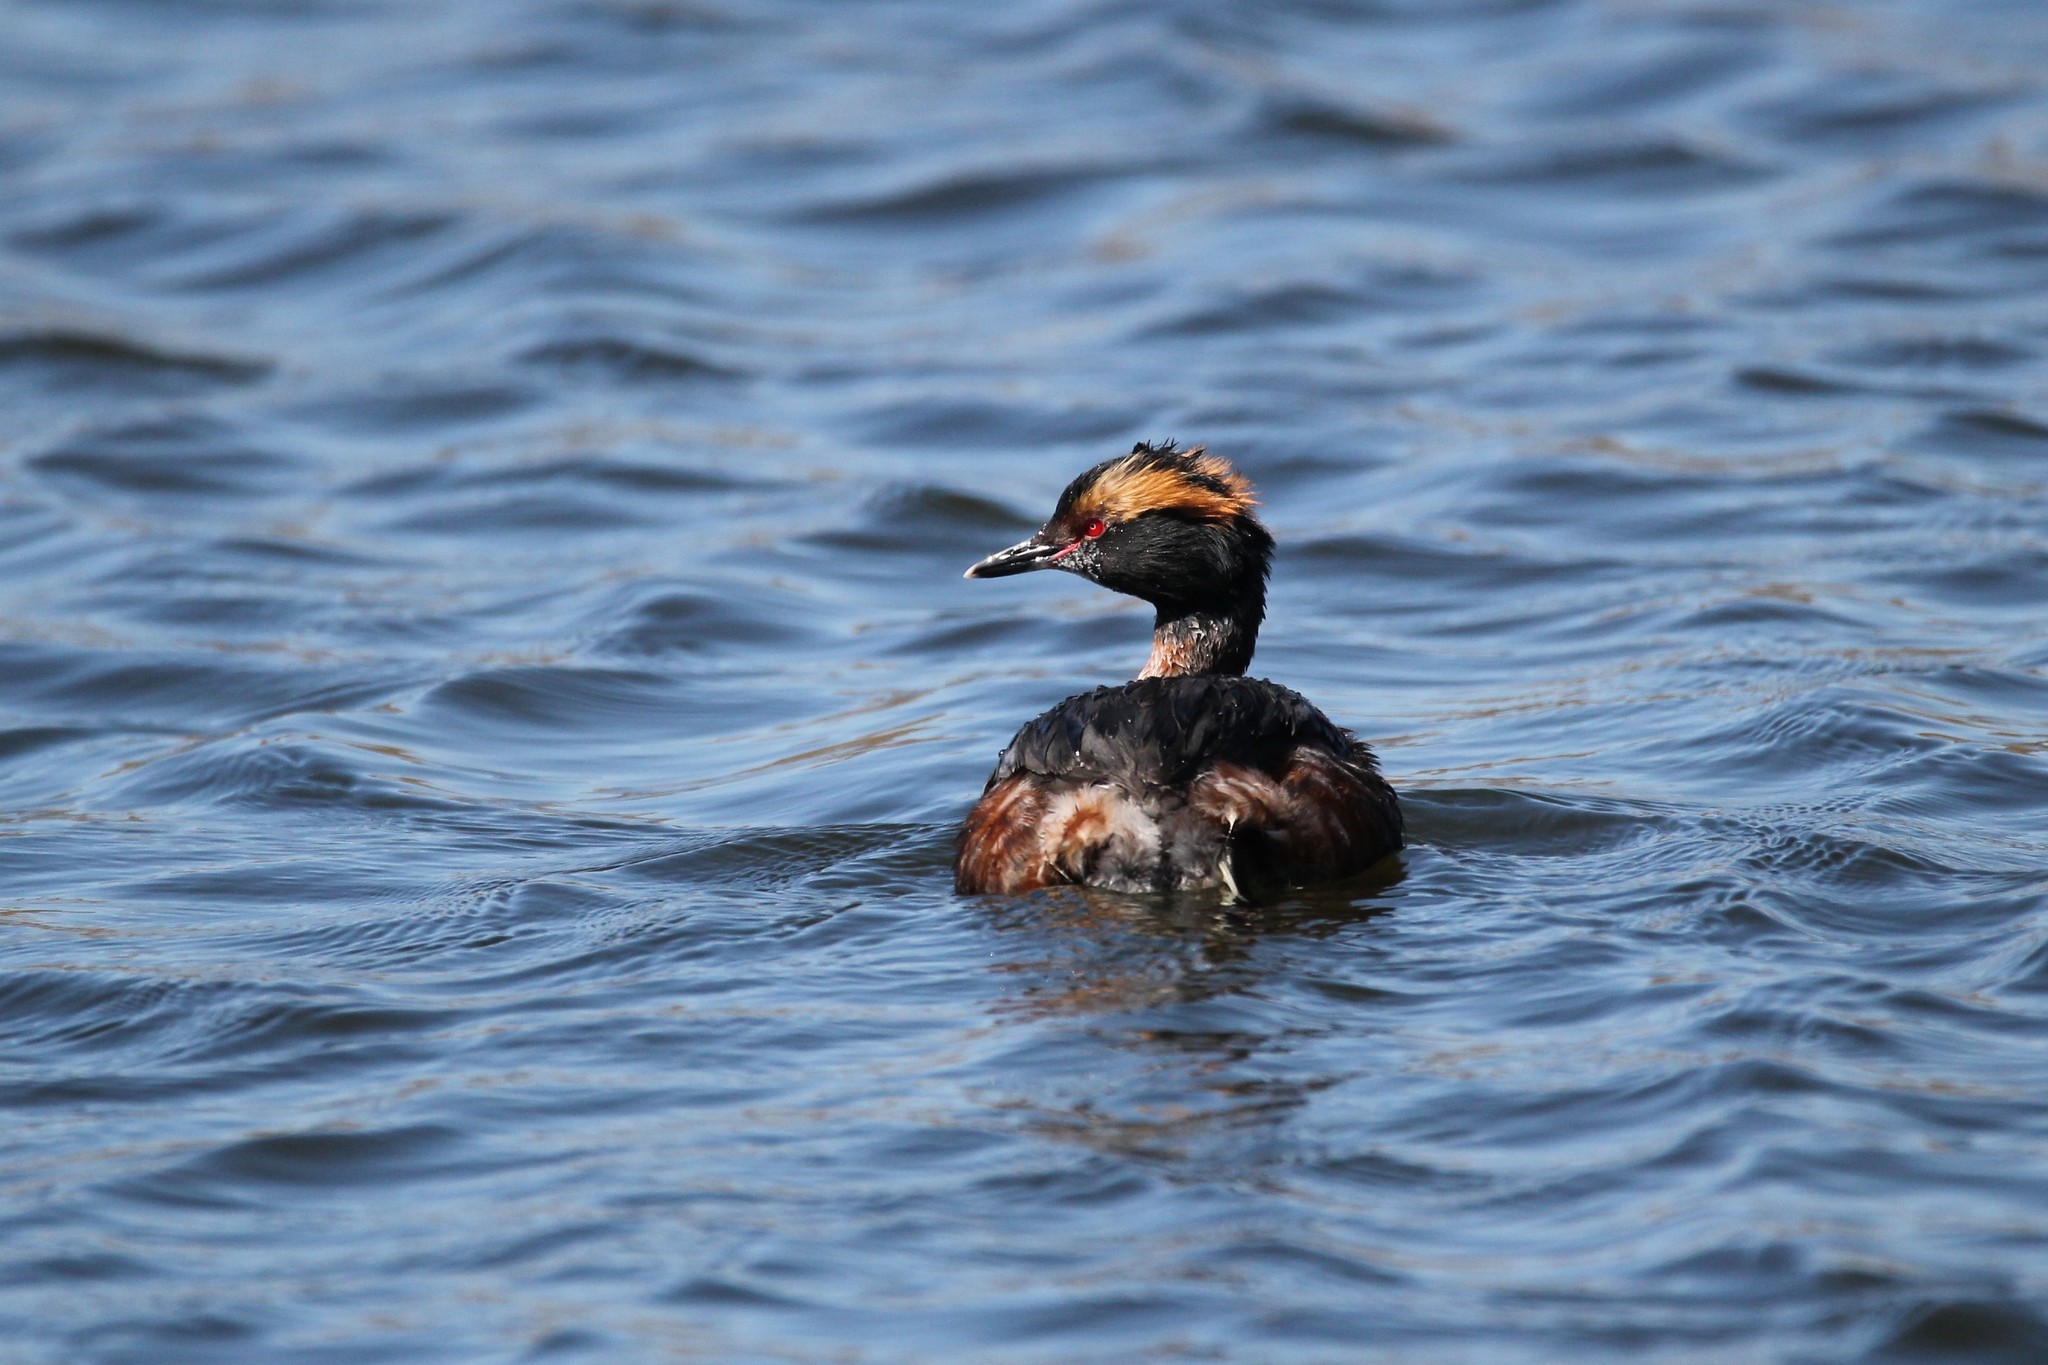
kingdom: Animalia
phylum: Chordata
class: Aves
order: Podicipediformes
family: Podicipedidae
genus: Podiceps
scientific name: Podiceps auritus
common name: Horned grebe
